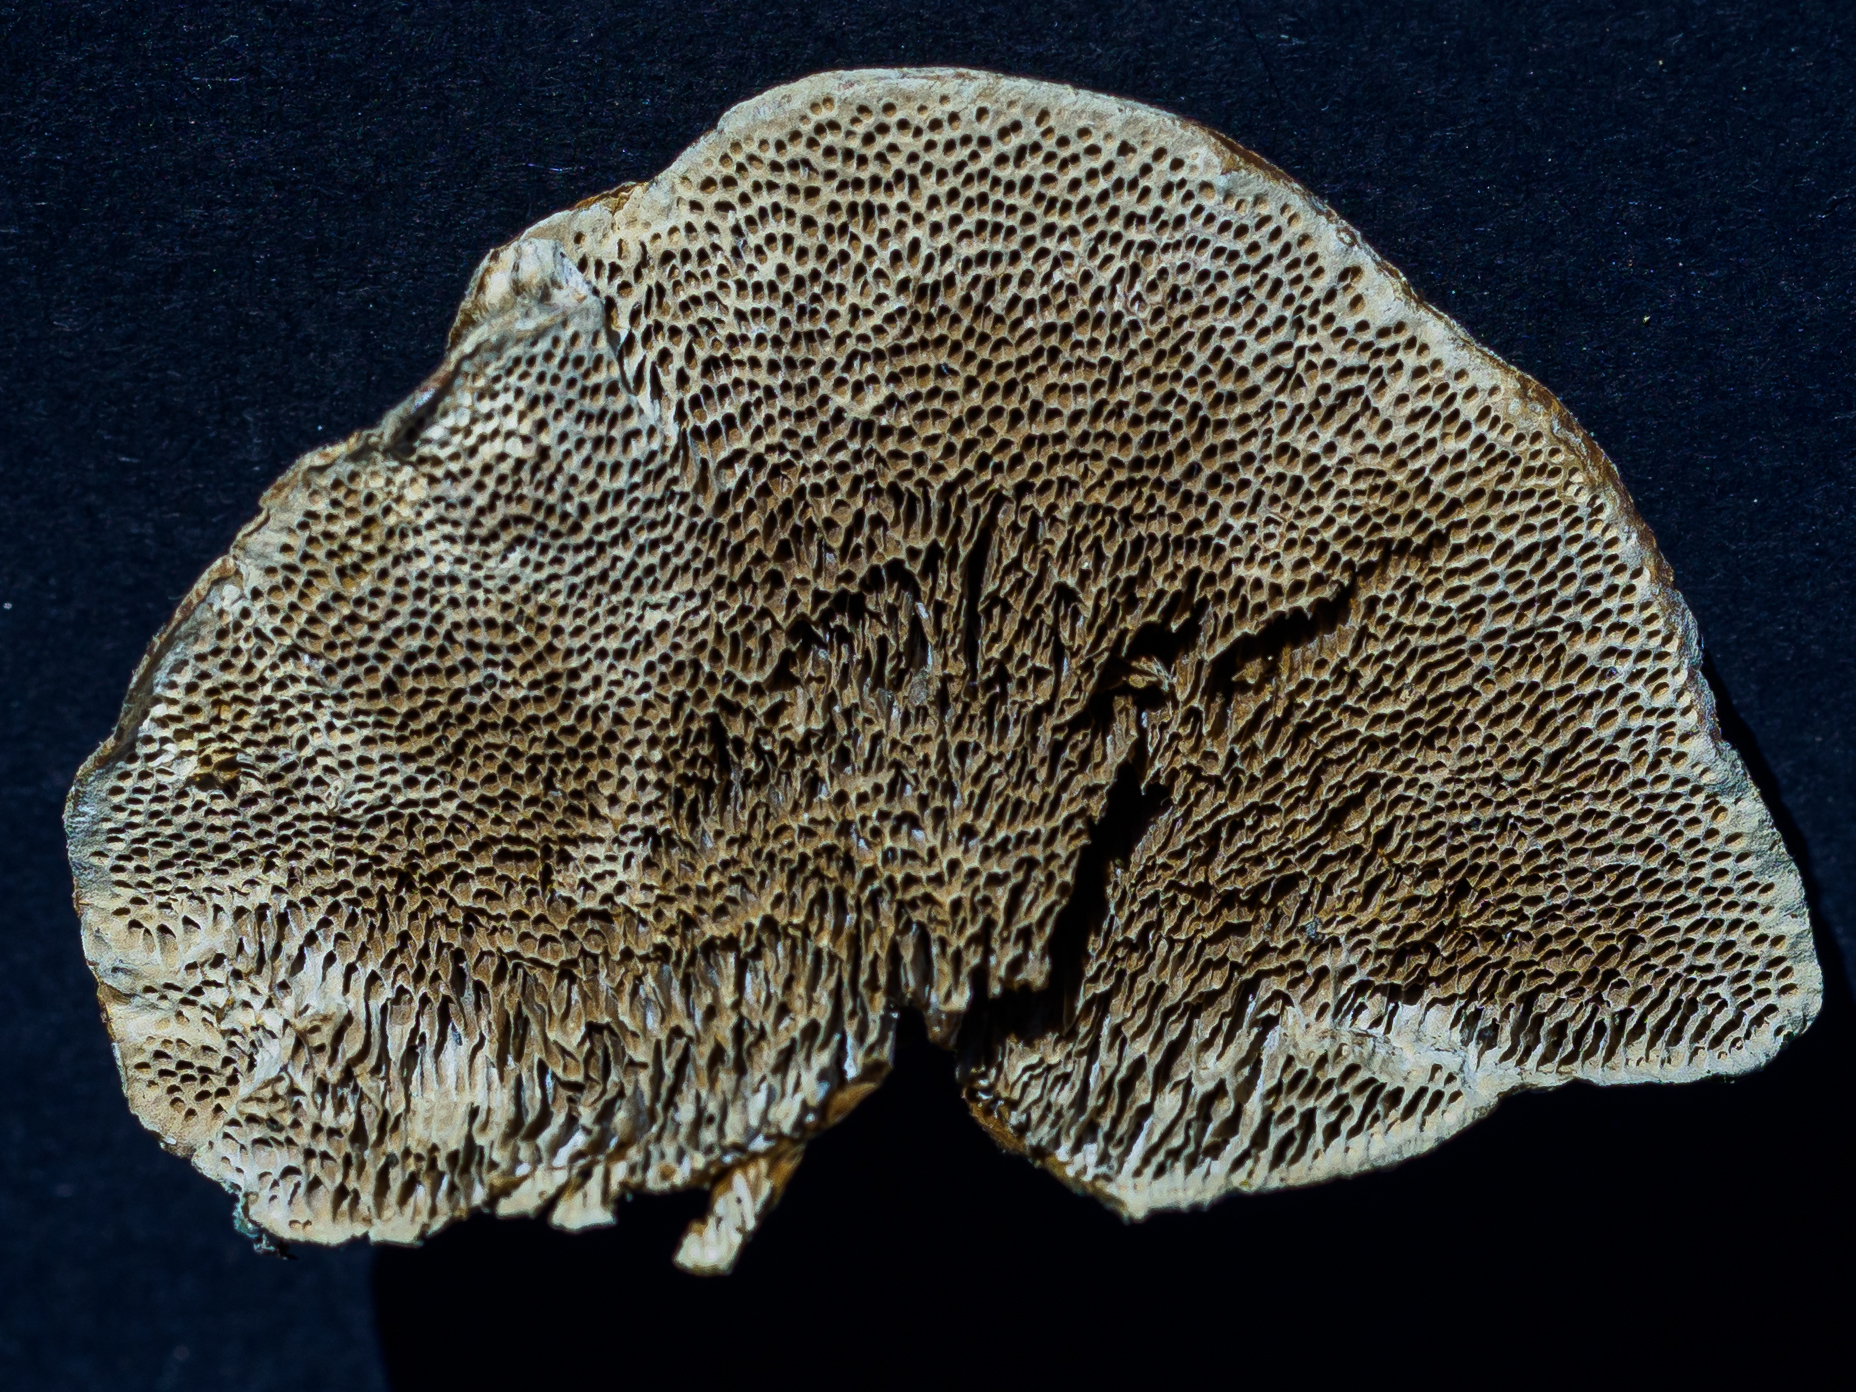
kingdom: Fungi
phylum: Basidiomycota
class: Agaricomycetes
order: Polyporales
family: Polyporaceae
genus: Coriolopsis
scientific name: Coriolopsis gallica
